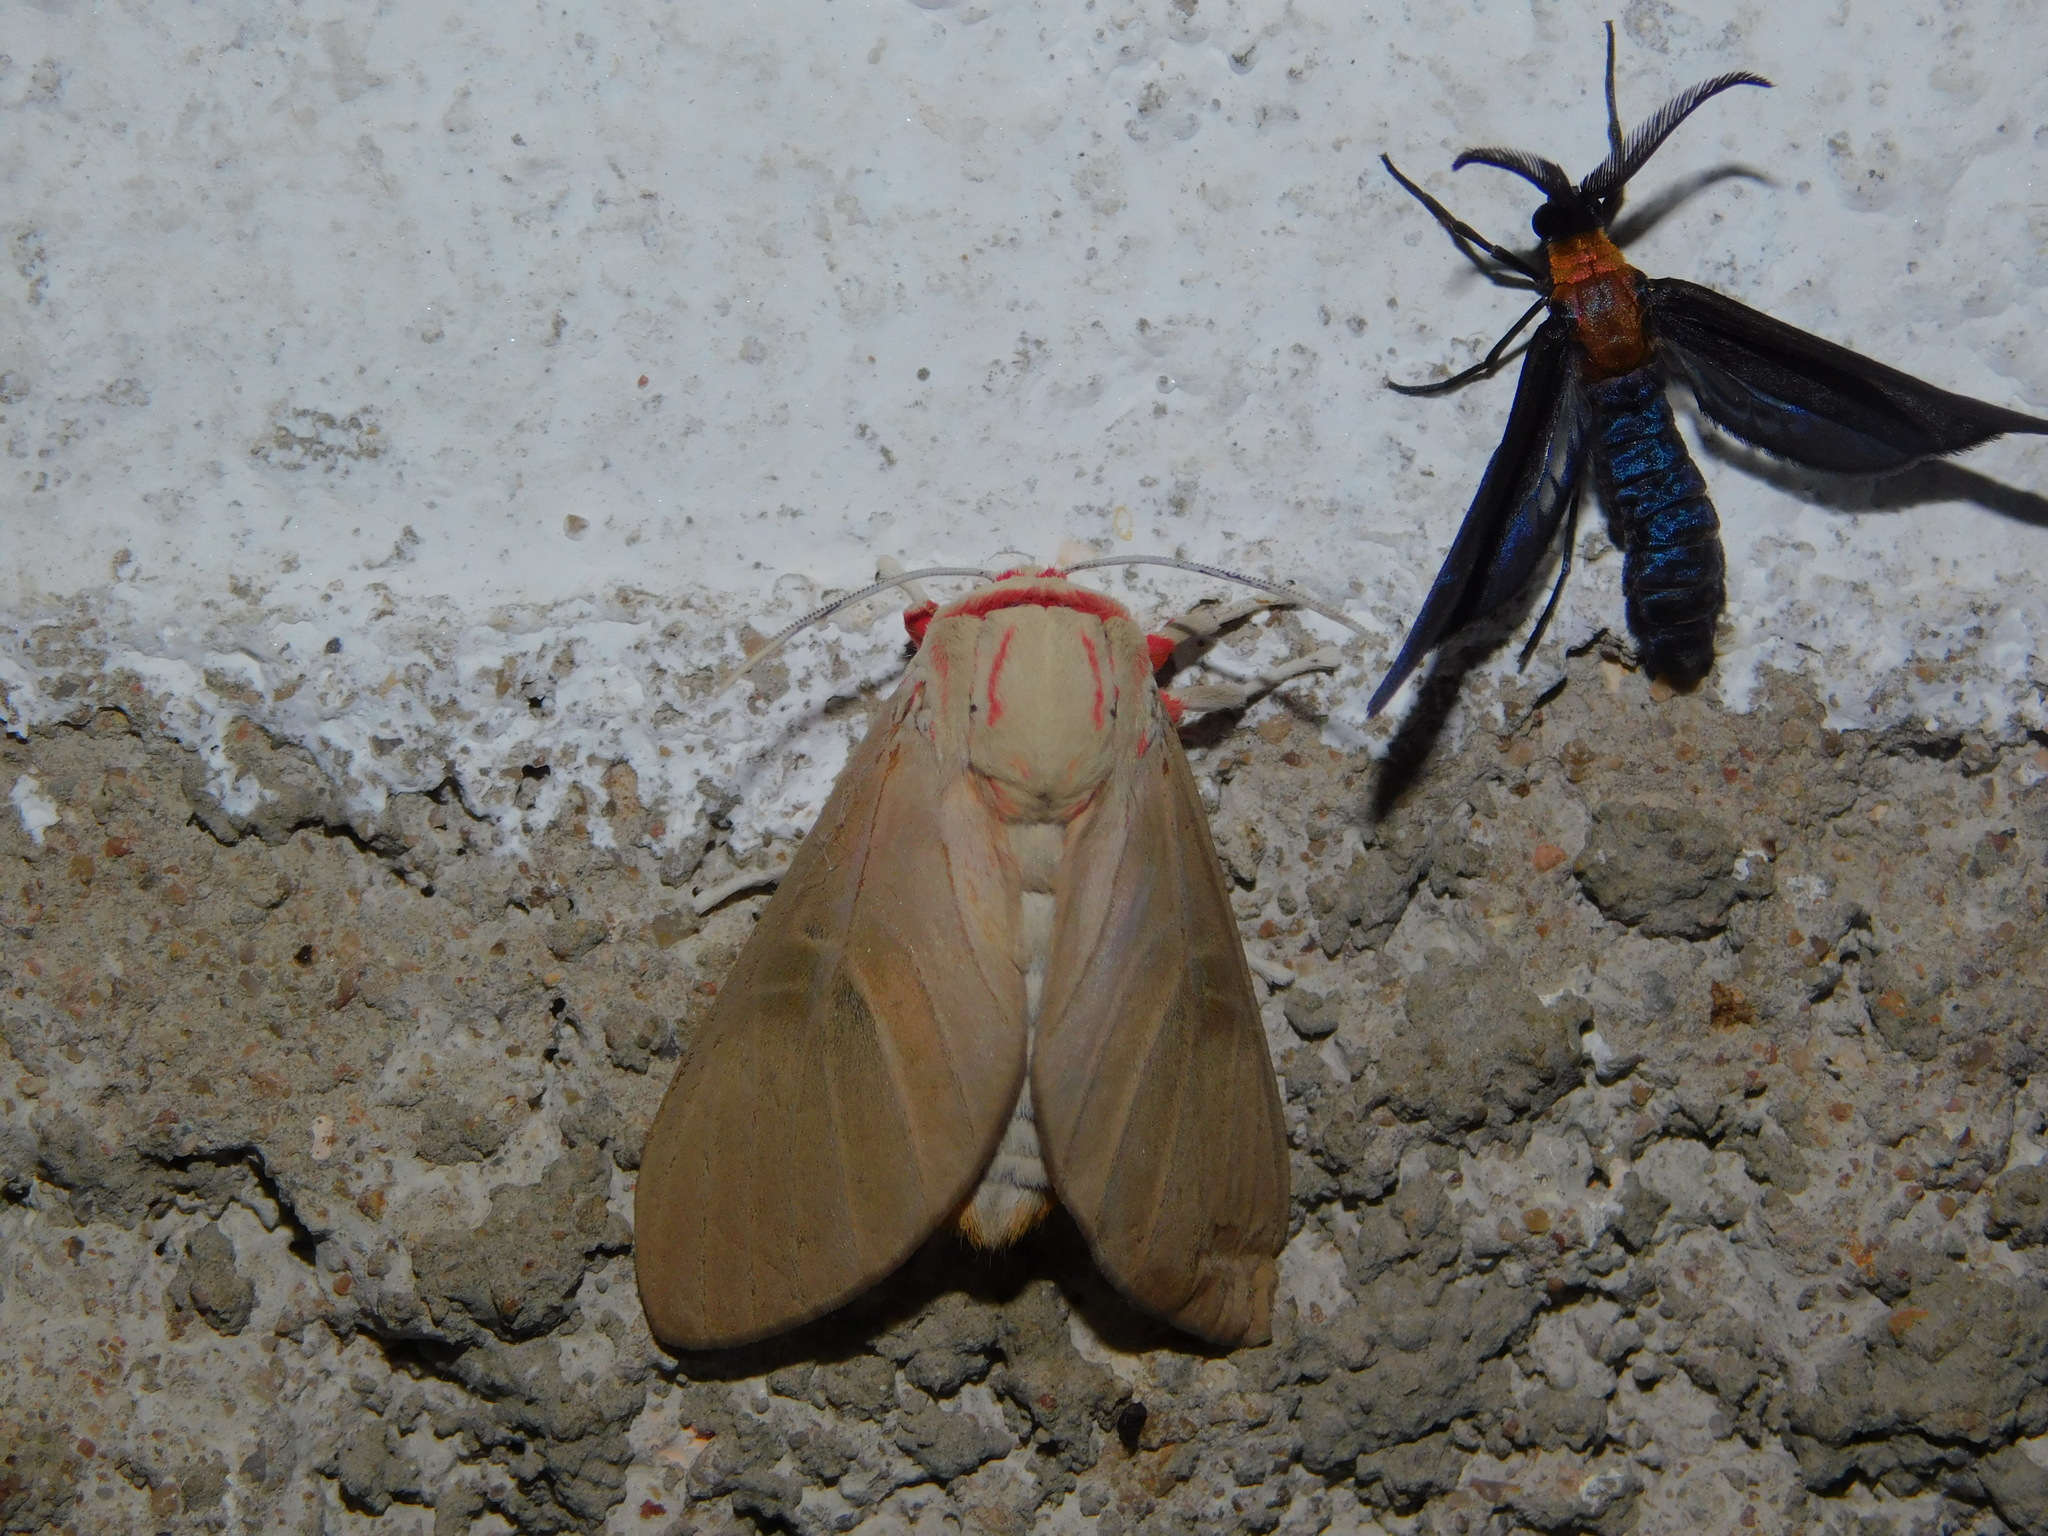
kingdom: Animalia
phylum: Arthropoda
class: Insecta
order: Lepidoptera
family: Erebidae
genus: Balacra
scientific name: Balacra herona
